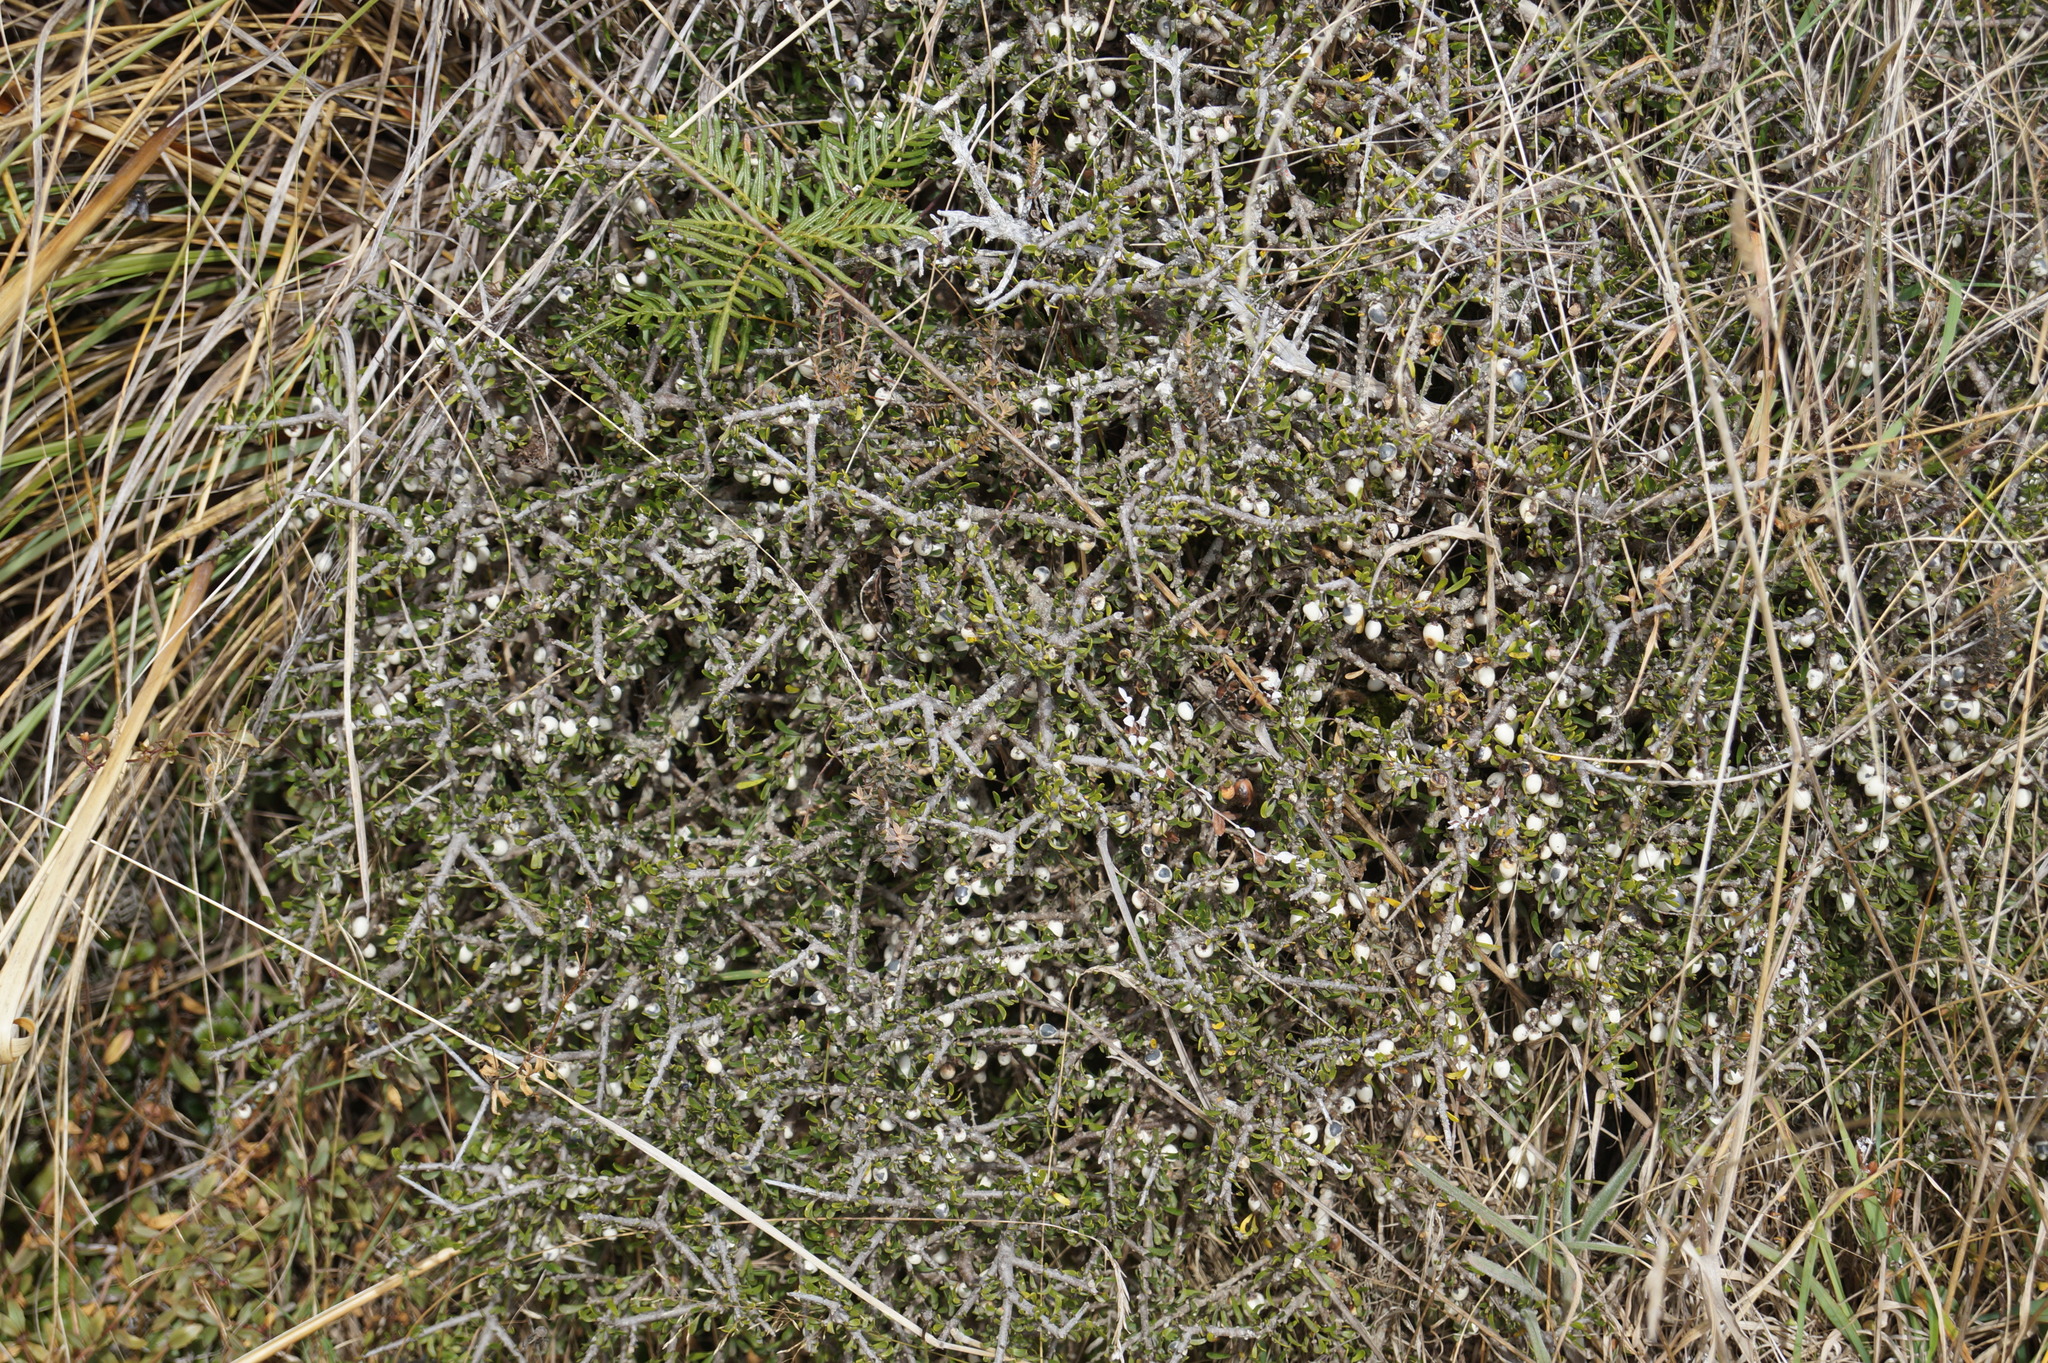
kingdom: Plantae
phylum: Tracheophyta
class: Magnoliopsida
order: Malpighiales
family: Violaceae
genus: Melicytus
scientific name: Melicytus alpinus
